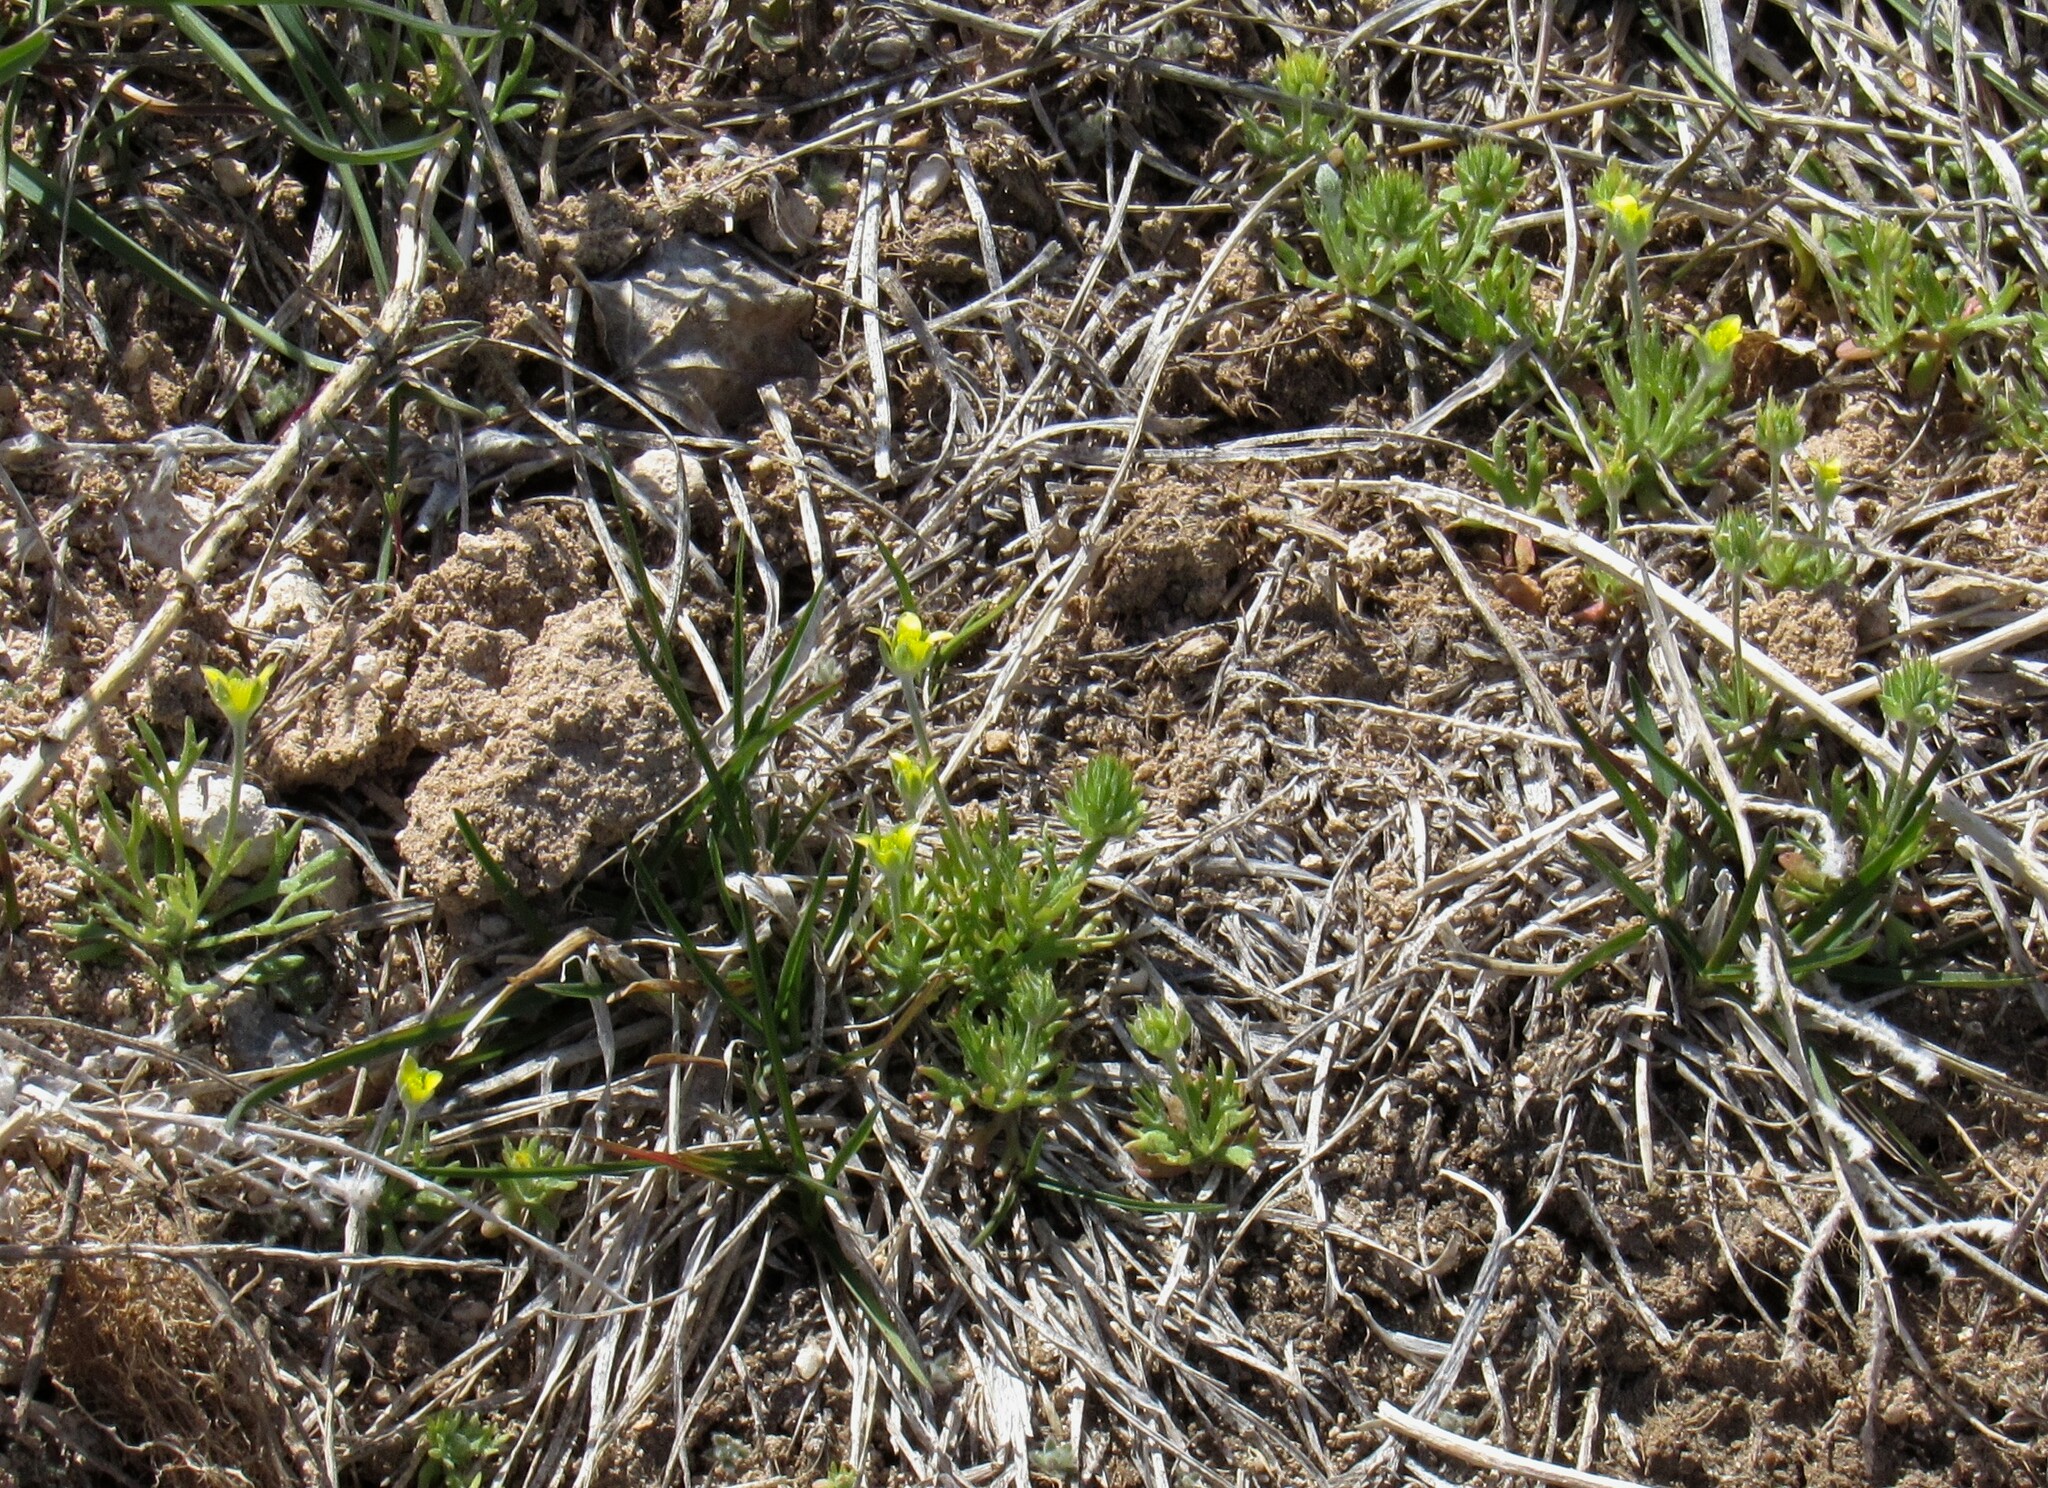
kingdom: Plantae
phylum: Tracheophyta
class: Magnoliopsida
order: Ranunculales
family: Ranunculaceae
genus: Ceratocephala
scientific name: Ceratocephala orthoceras
